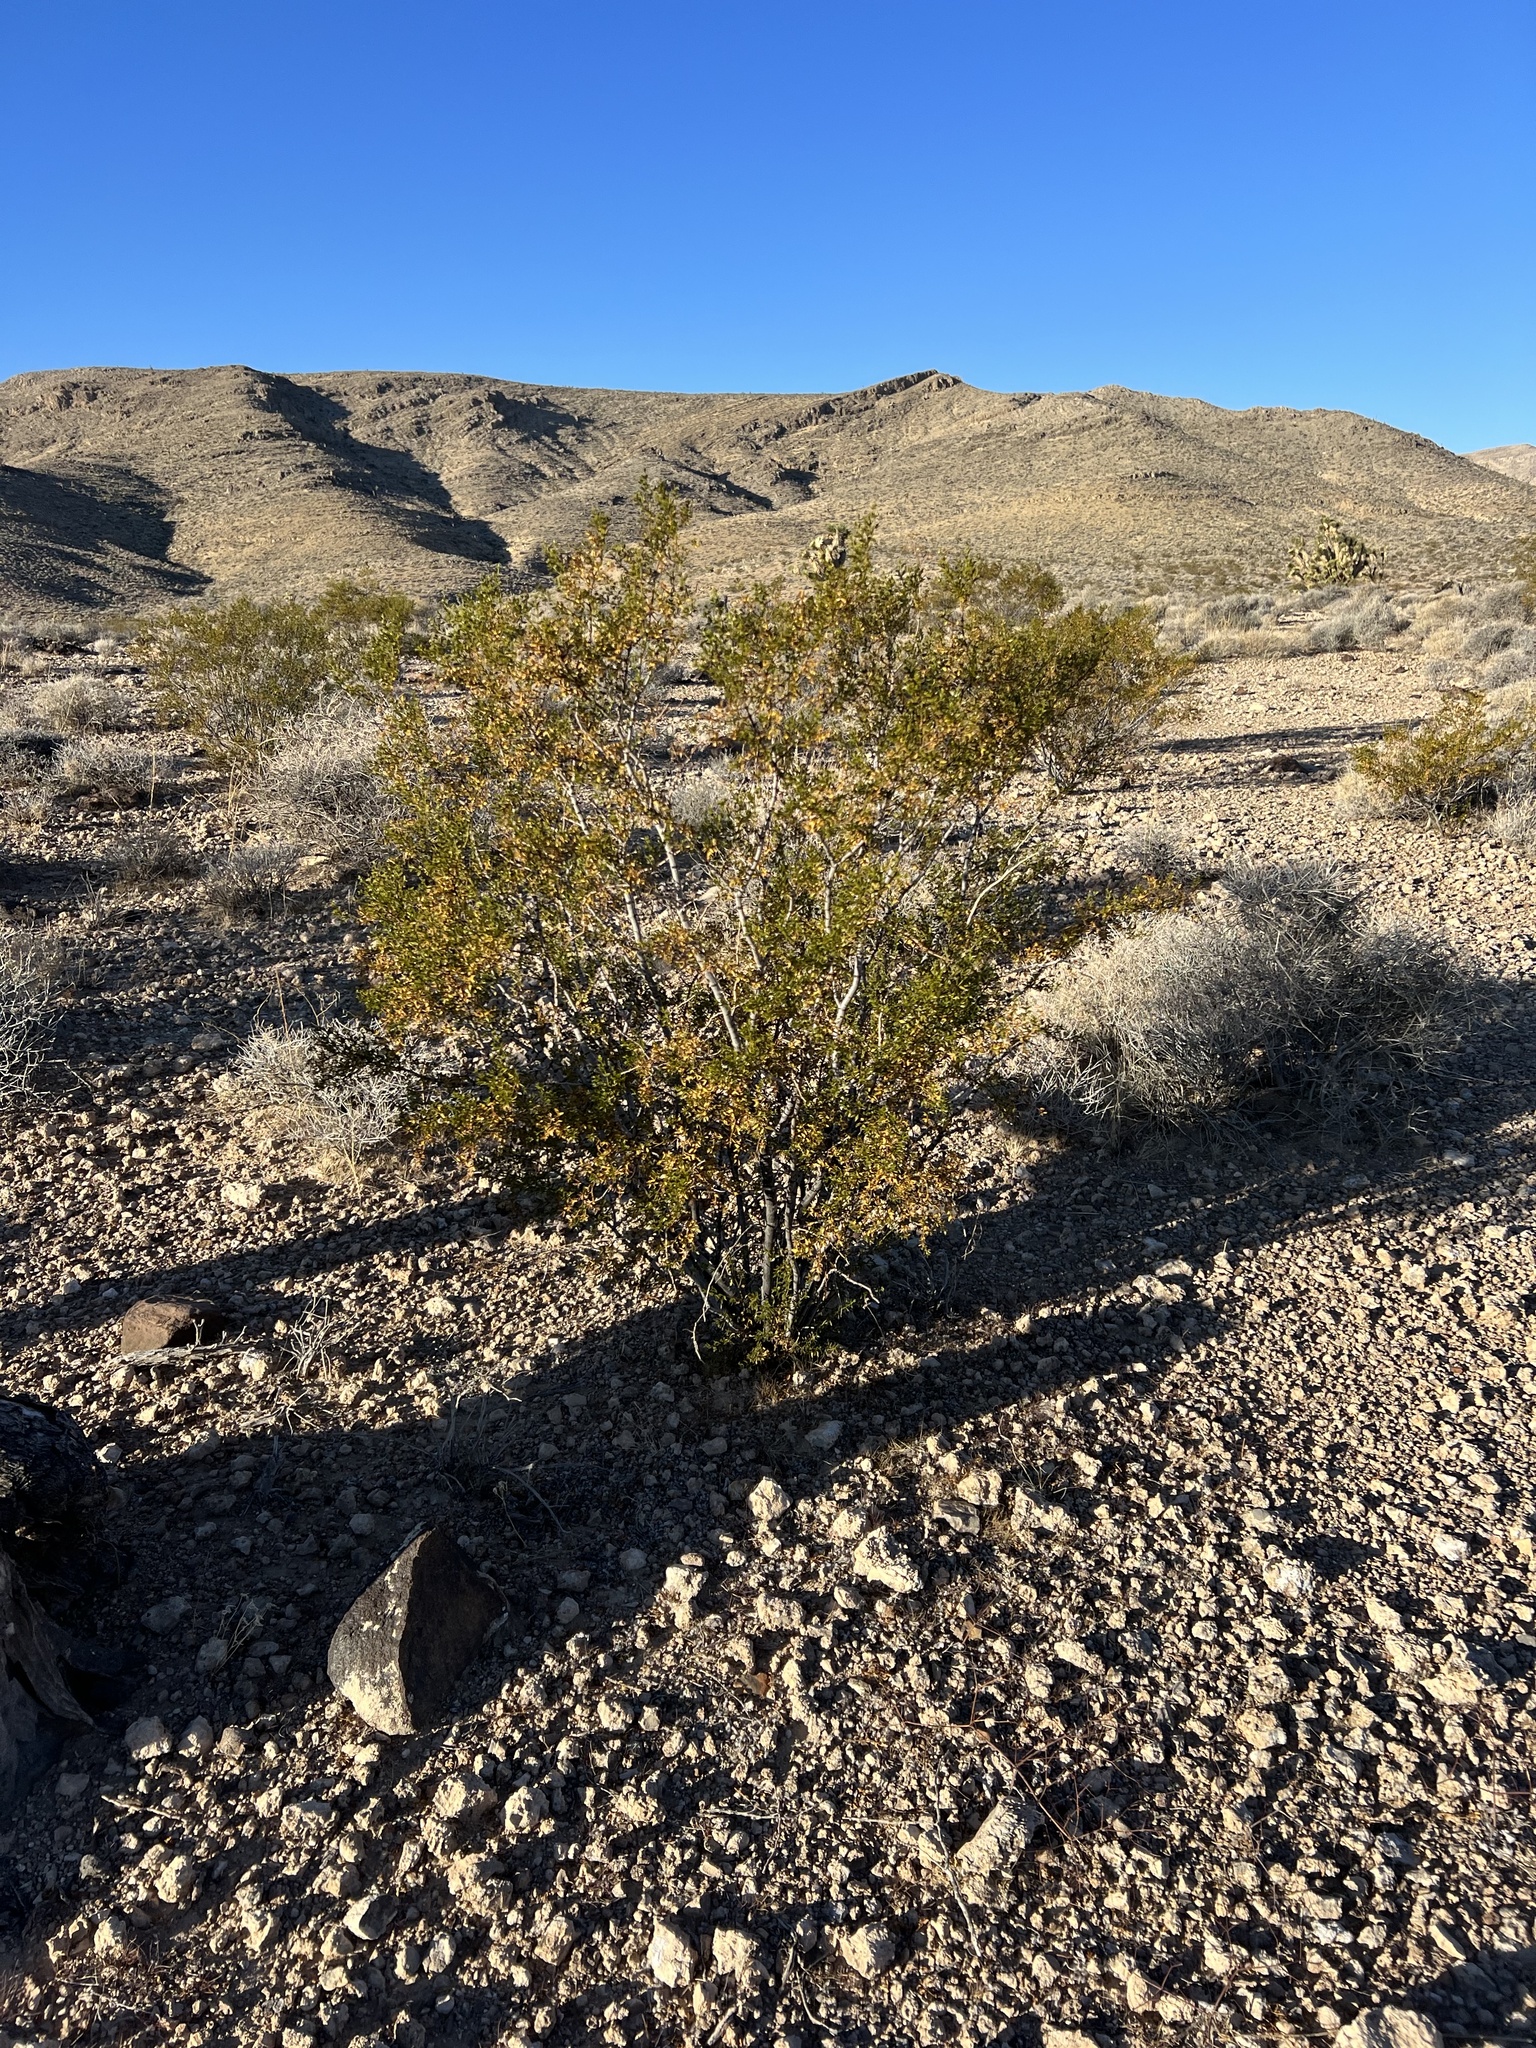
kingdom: Plantae
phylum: Tracheophyta
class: Magnoliopsida
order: Zygophyllales
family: Zygophyllaceae
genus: Larrea
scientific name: Larrea tridentata
